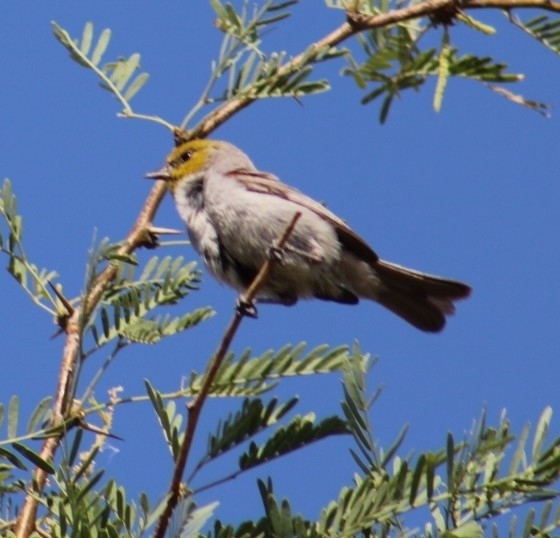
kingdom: Animalia
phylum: Chordata
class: Aves
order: Passeriformes
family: Remizidae
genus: Auriparus
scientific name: Auriparus flaviceps
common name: Verdin
